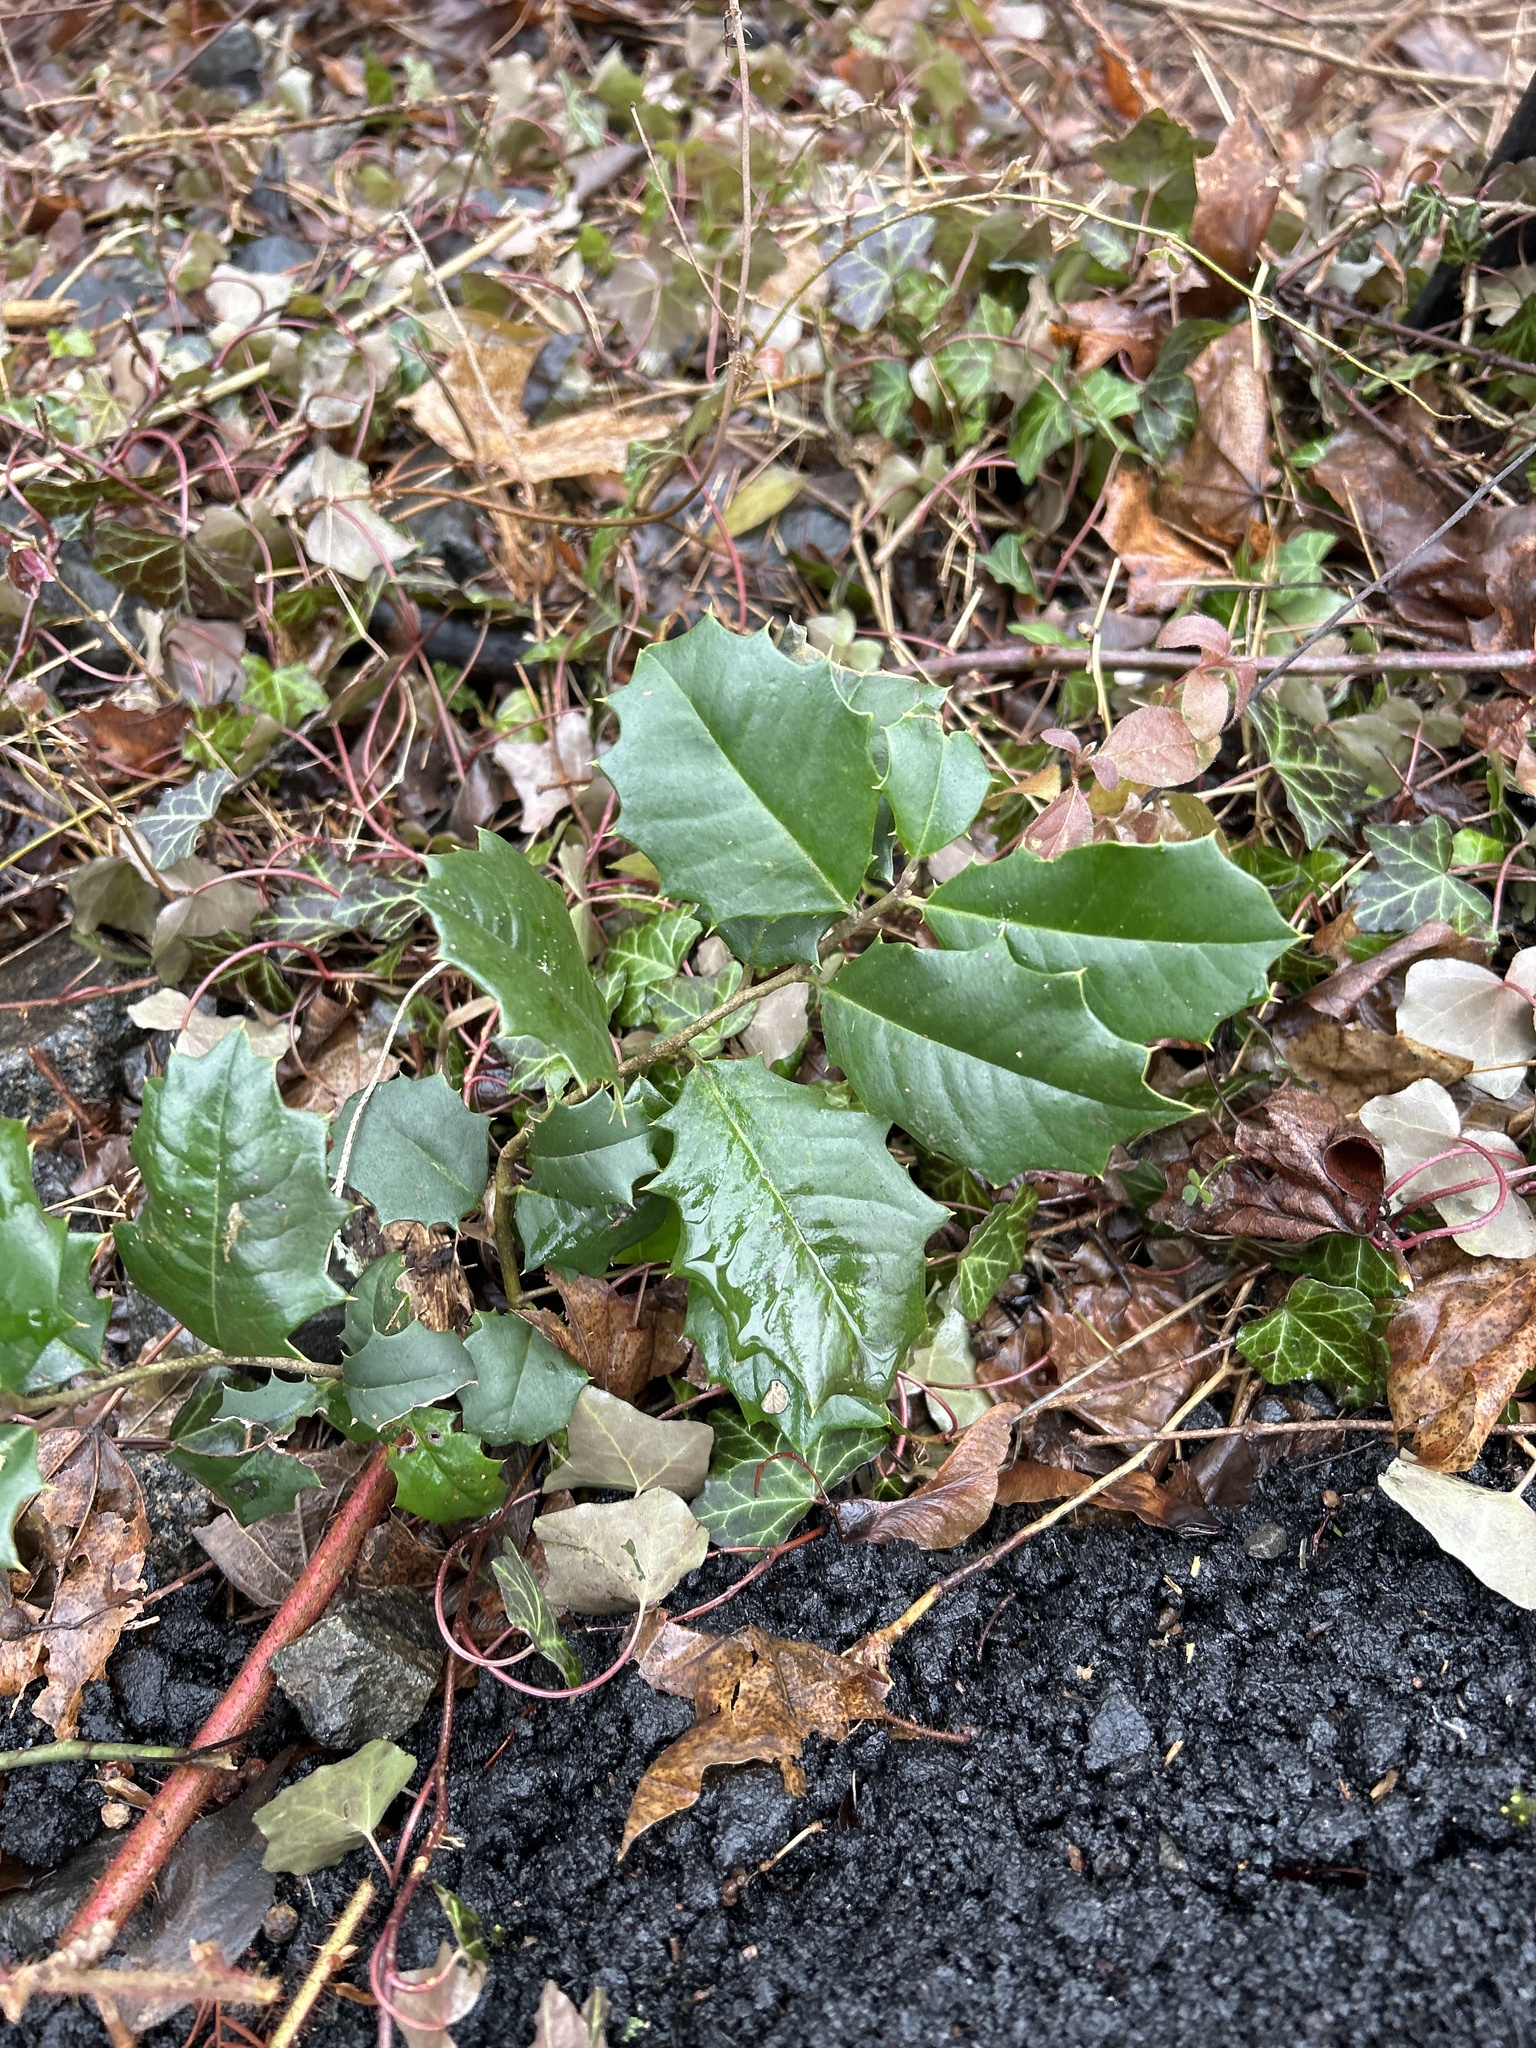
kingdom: Plantae
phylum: Tracheophyta
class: Magnoliopsida
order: Aquifoliales
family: Aquifoliaceae
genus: Ilex
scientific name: Ilex opaca
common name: American holly
